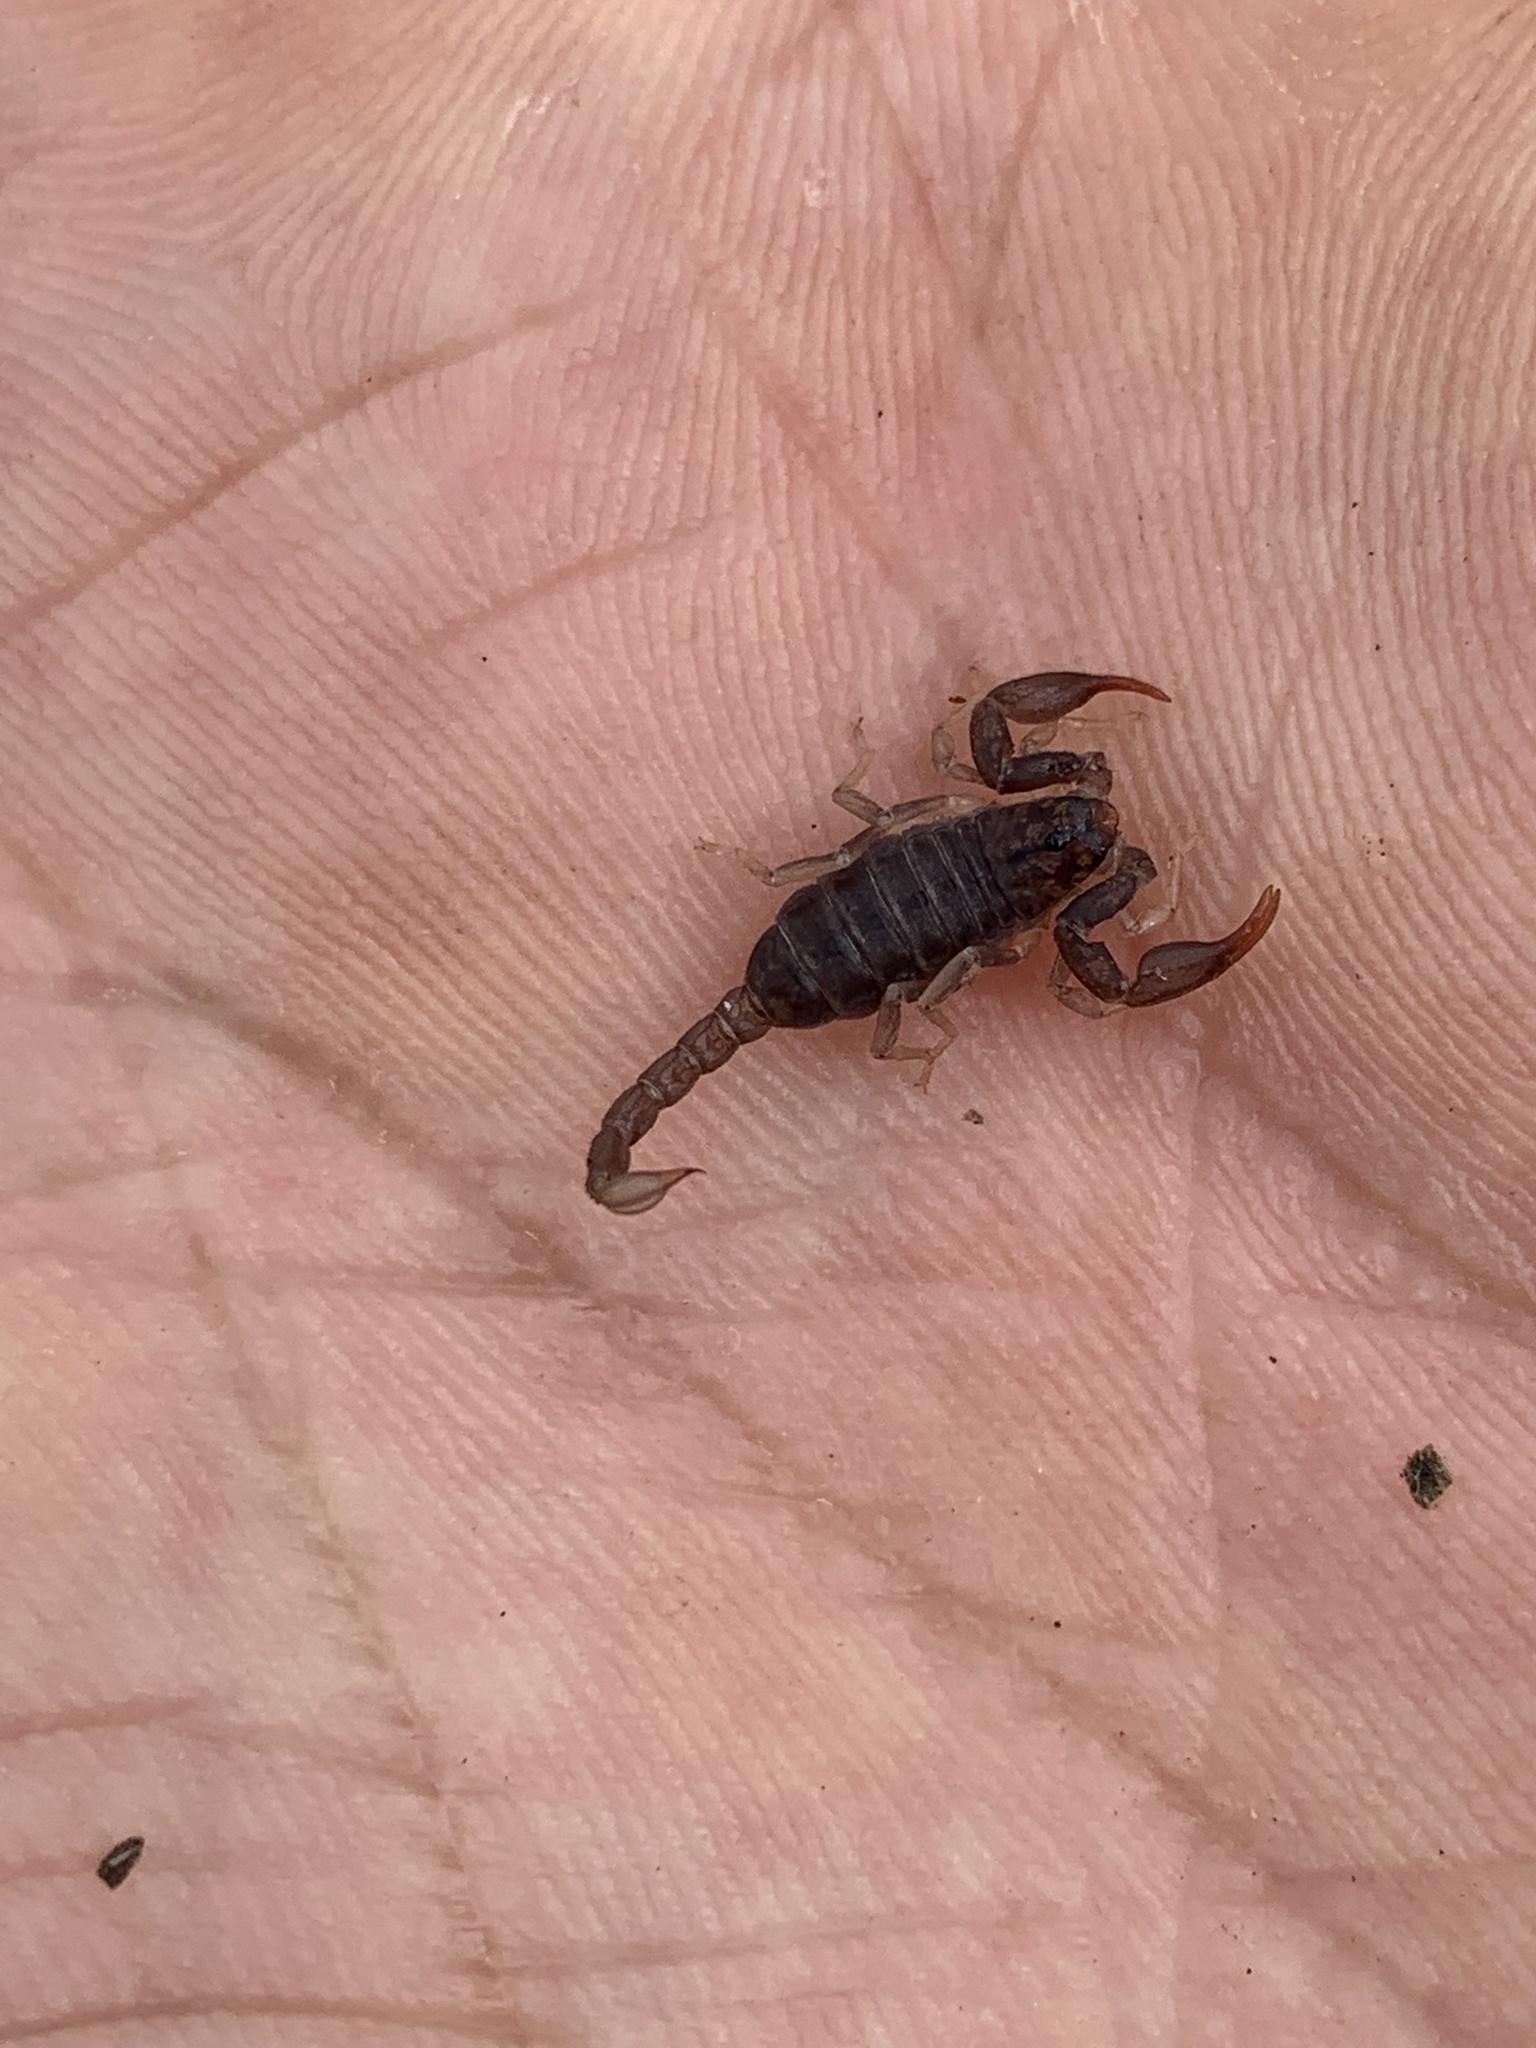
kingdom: Animalia
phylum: Arthropoda
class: Arachnida
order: Scorpiones
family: Chactidae
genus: Uroctonus
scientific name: Uroctonus mordax
